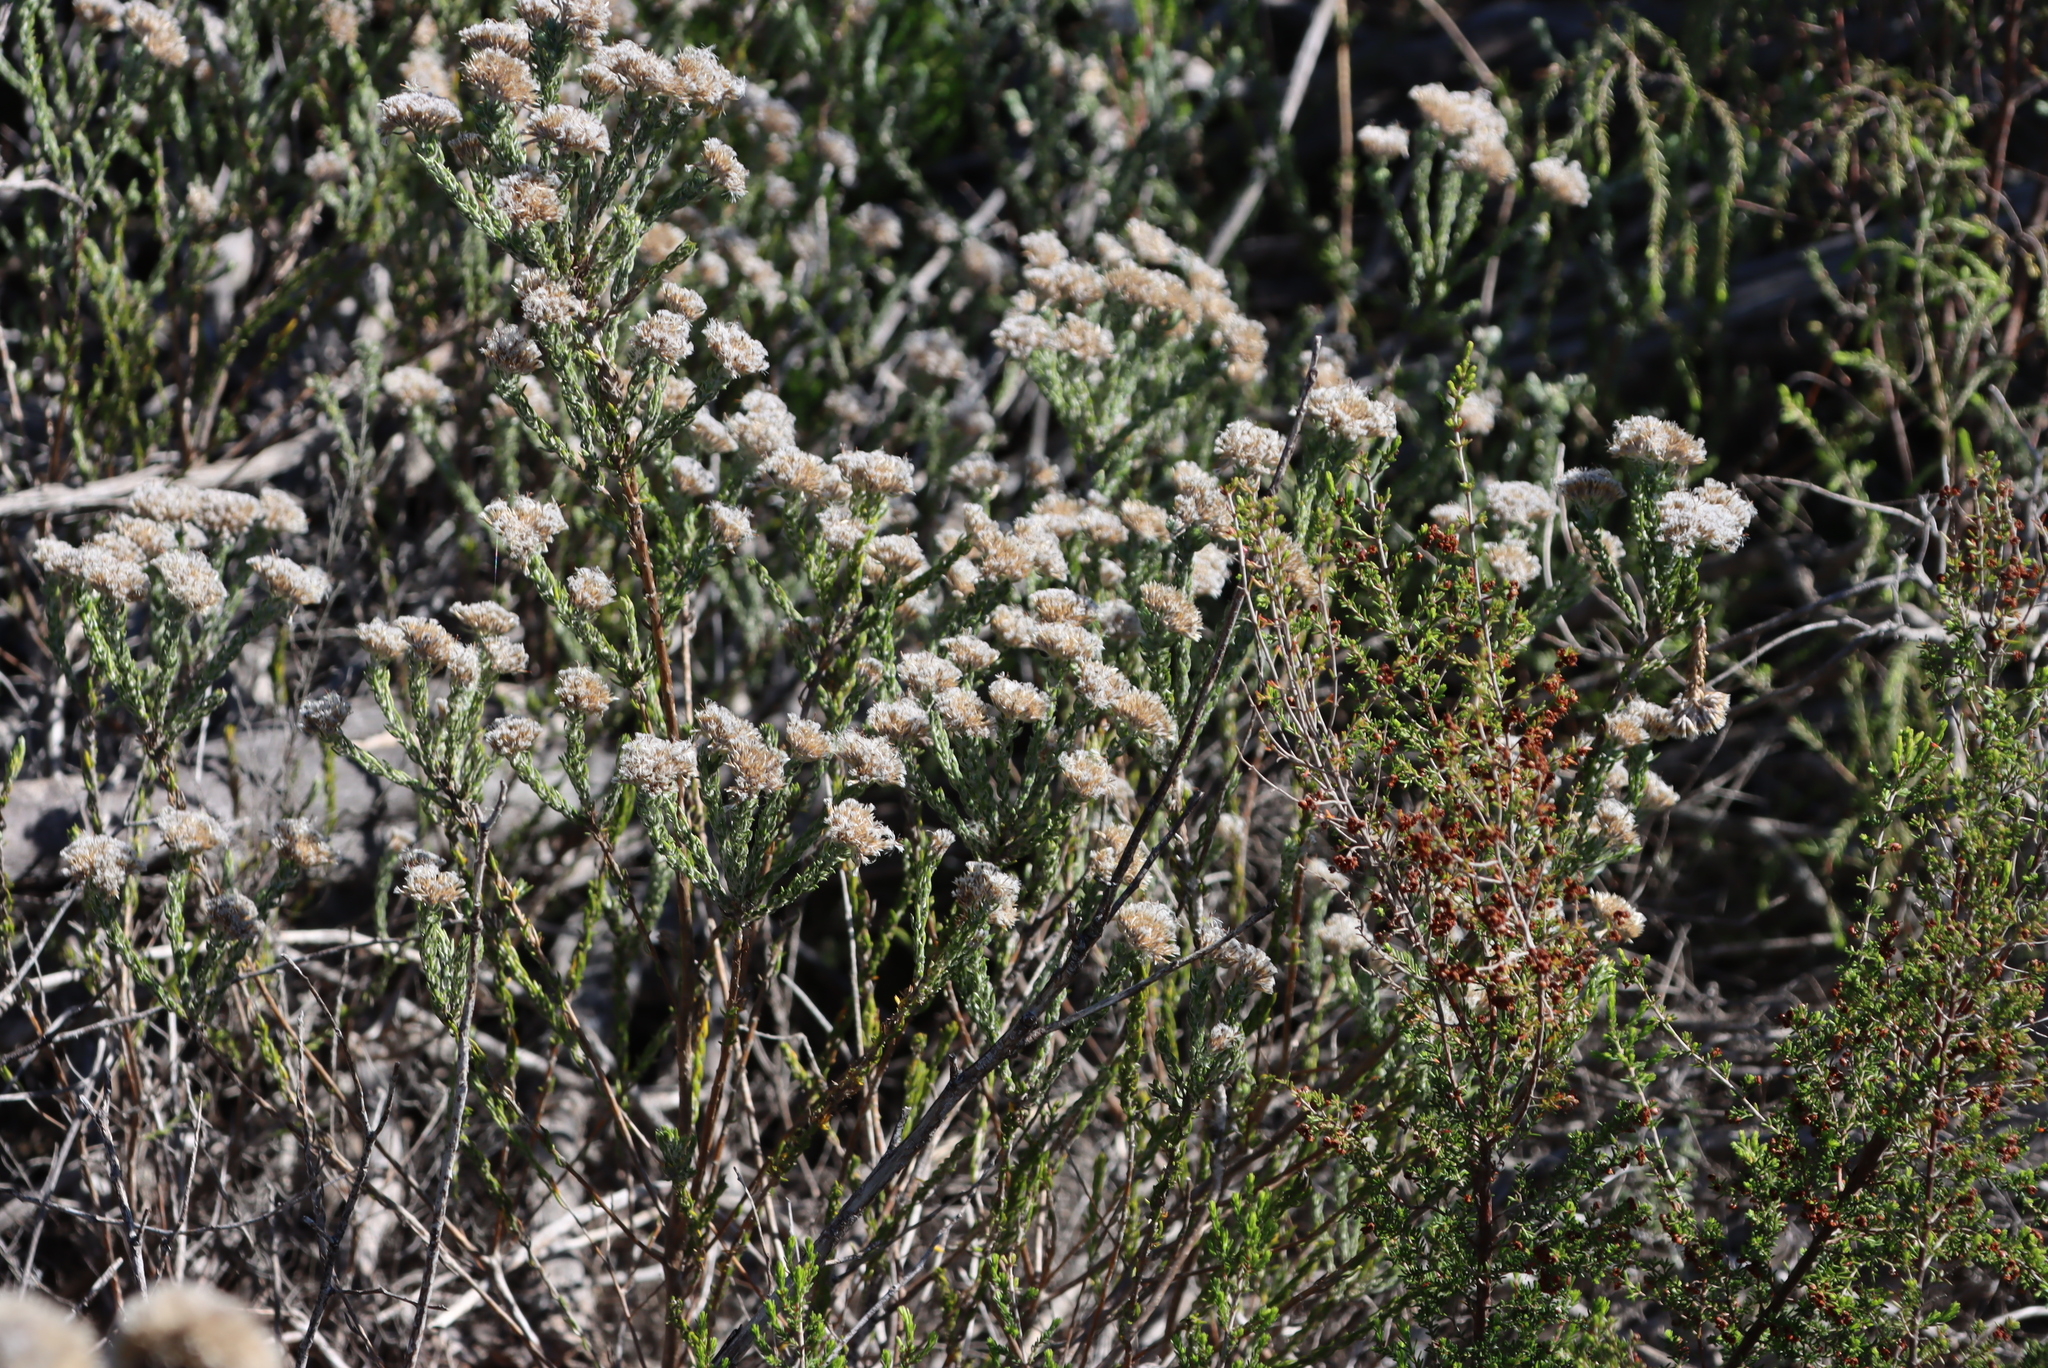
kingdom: Plantae
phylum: Tracheophyta
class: Magnoliopsida
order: Asterales
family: Asteraceae
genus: Metalasia
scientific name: Metalasia pungens
